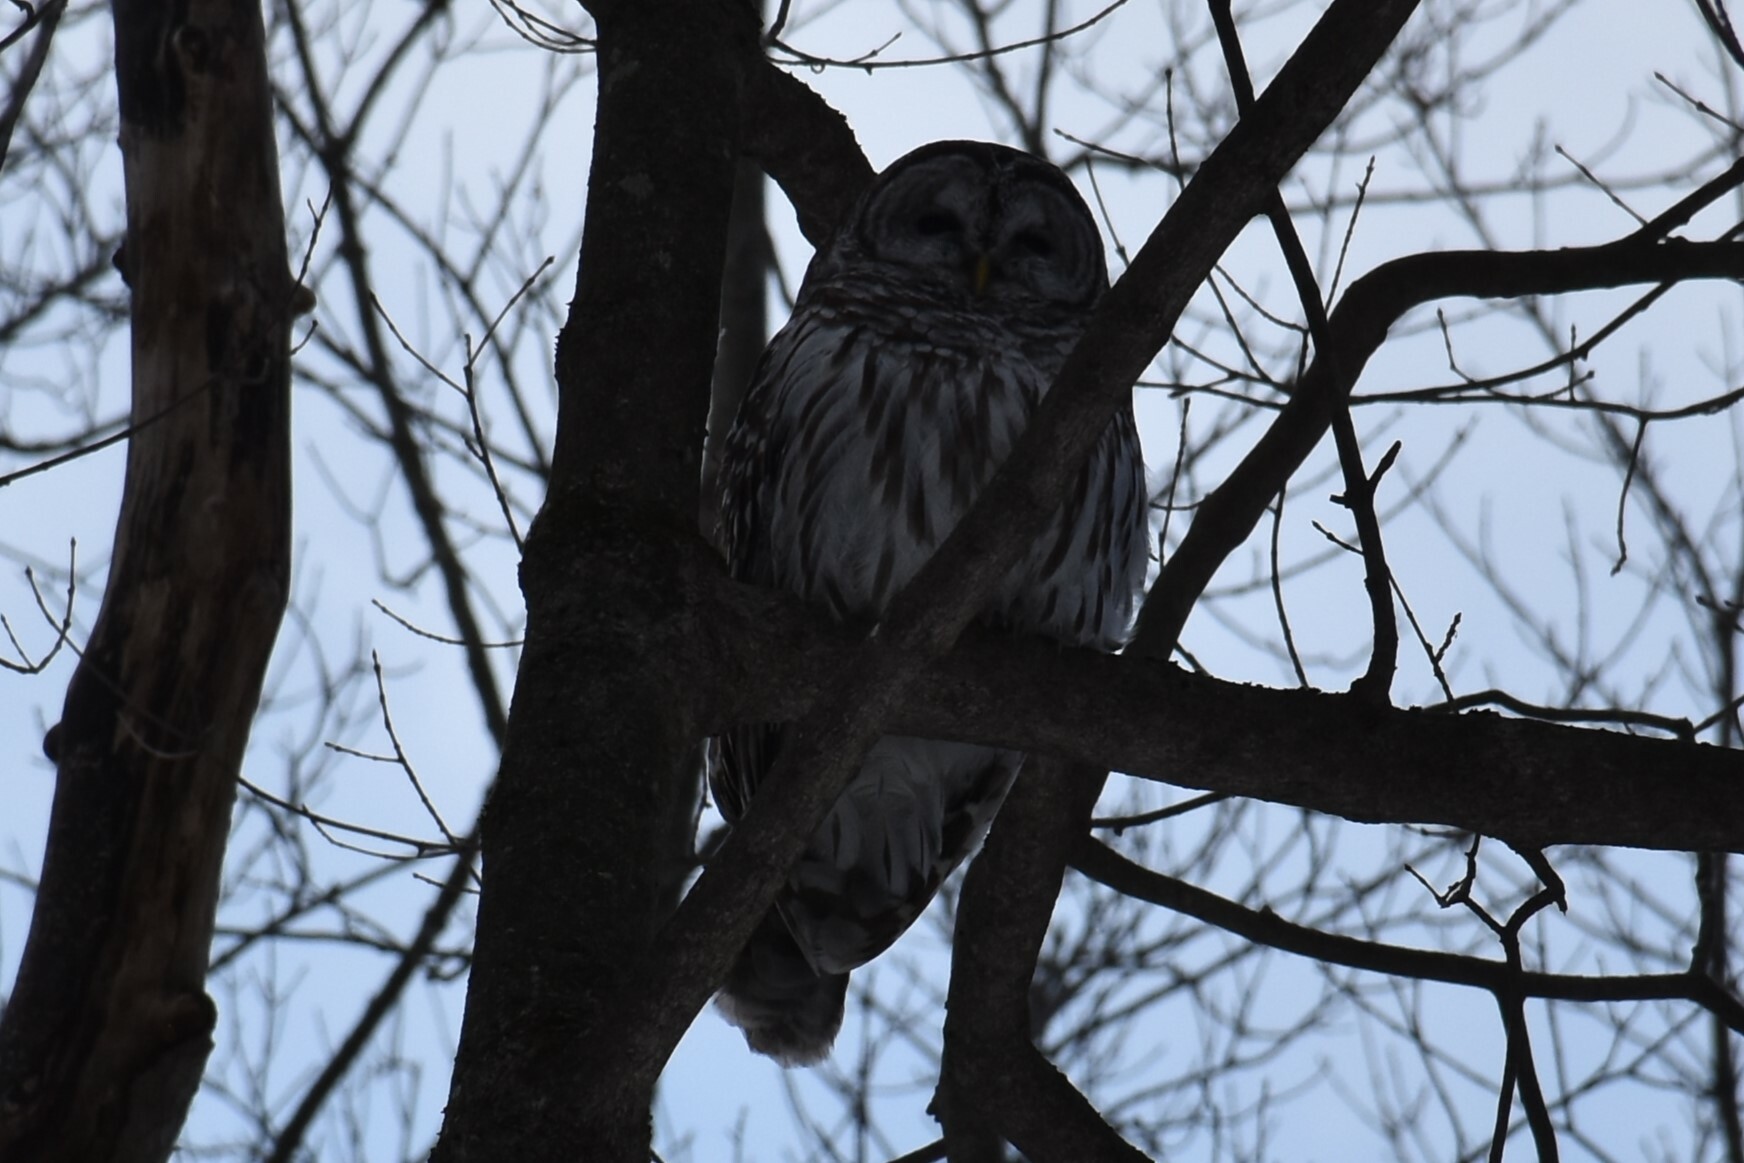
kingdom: Animalia
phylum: Chordata
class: Aves
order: Strigiformes
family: Strigidae
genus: Strix
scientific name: Strix varia
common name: Barred owl
